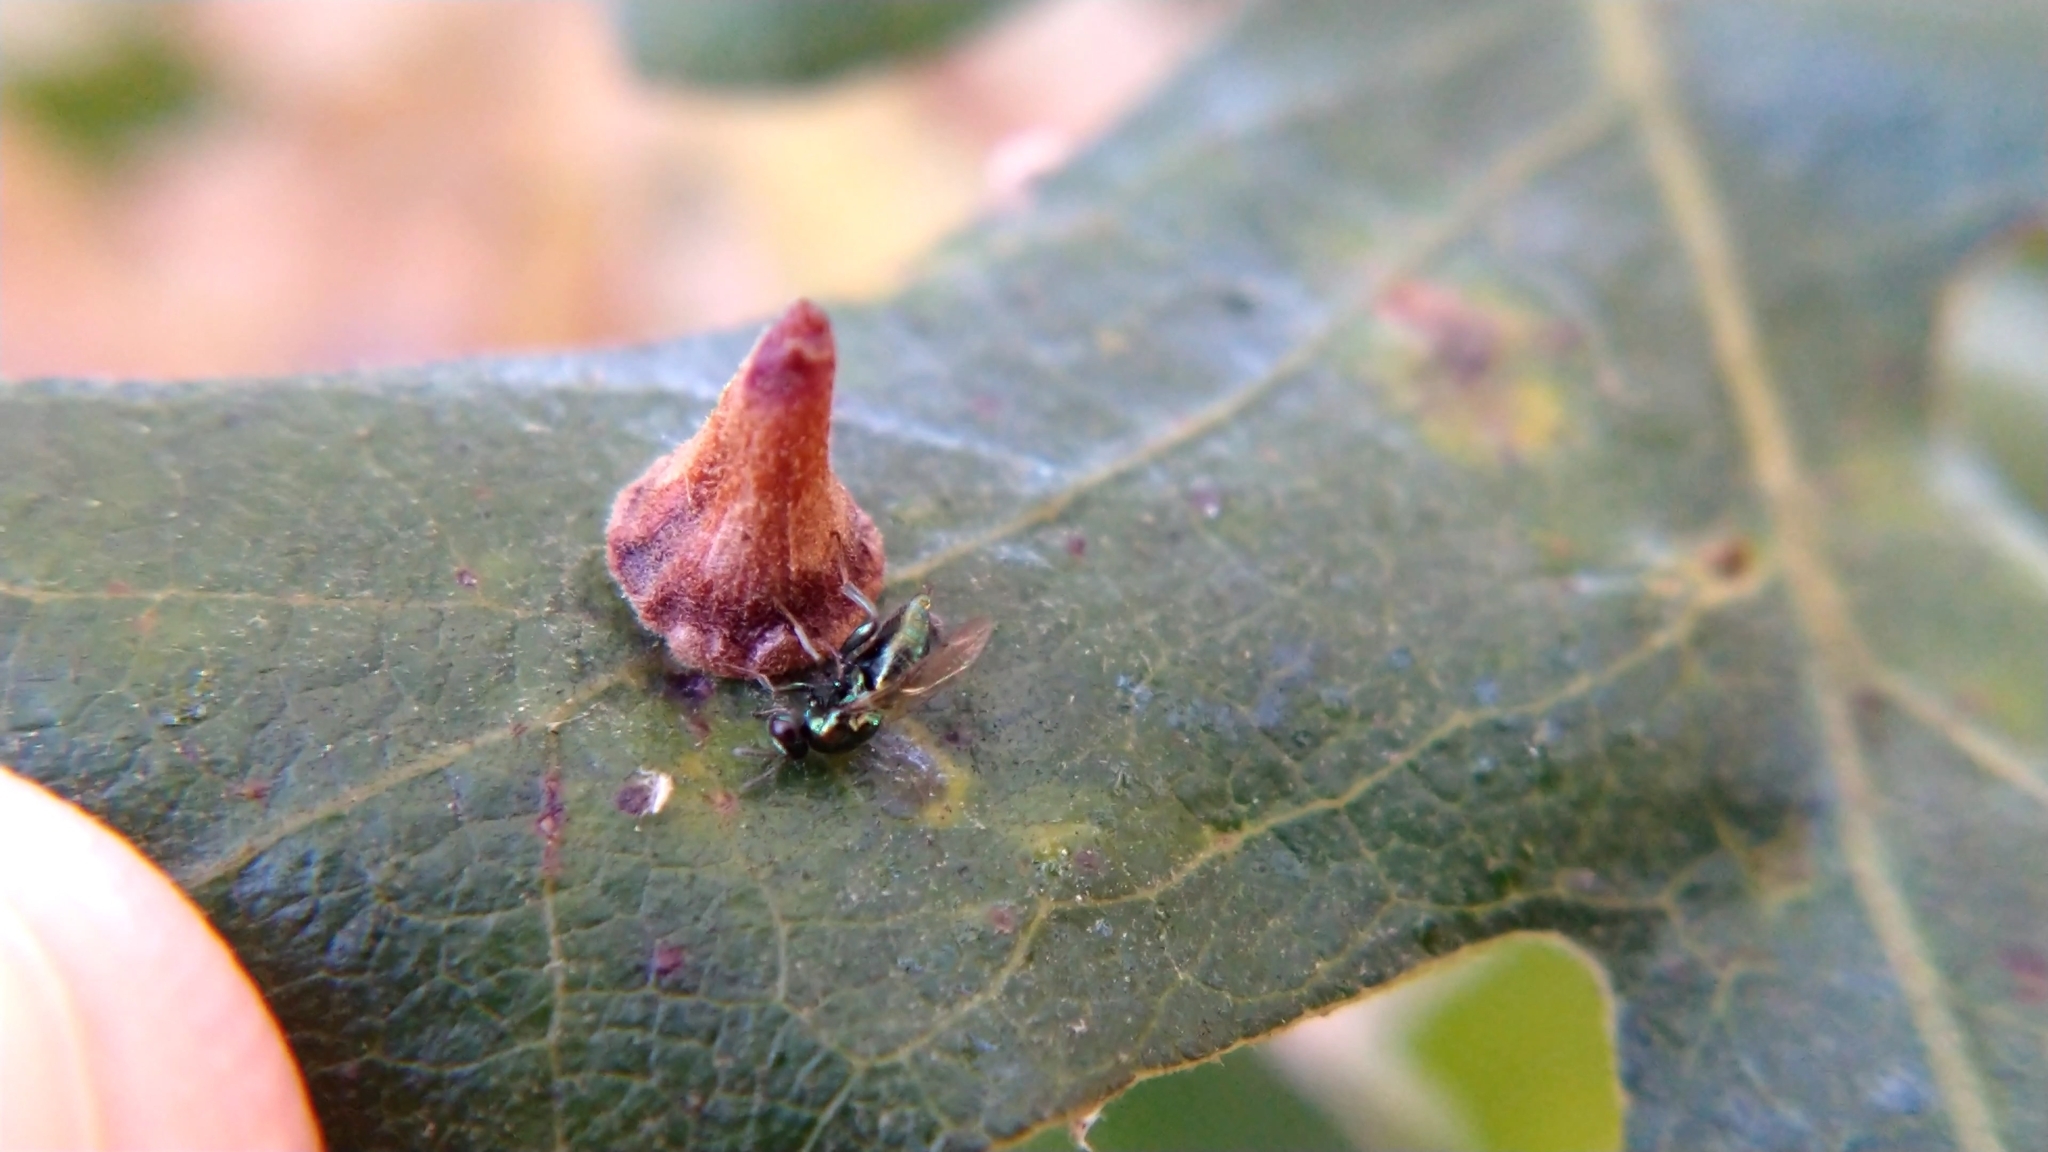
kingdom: Animalia
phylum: Arthropoda
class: Insecta
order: Hymenoptera
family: Cynipidae
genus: Andricus
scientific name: Andricus
